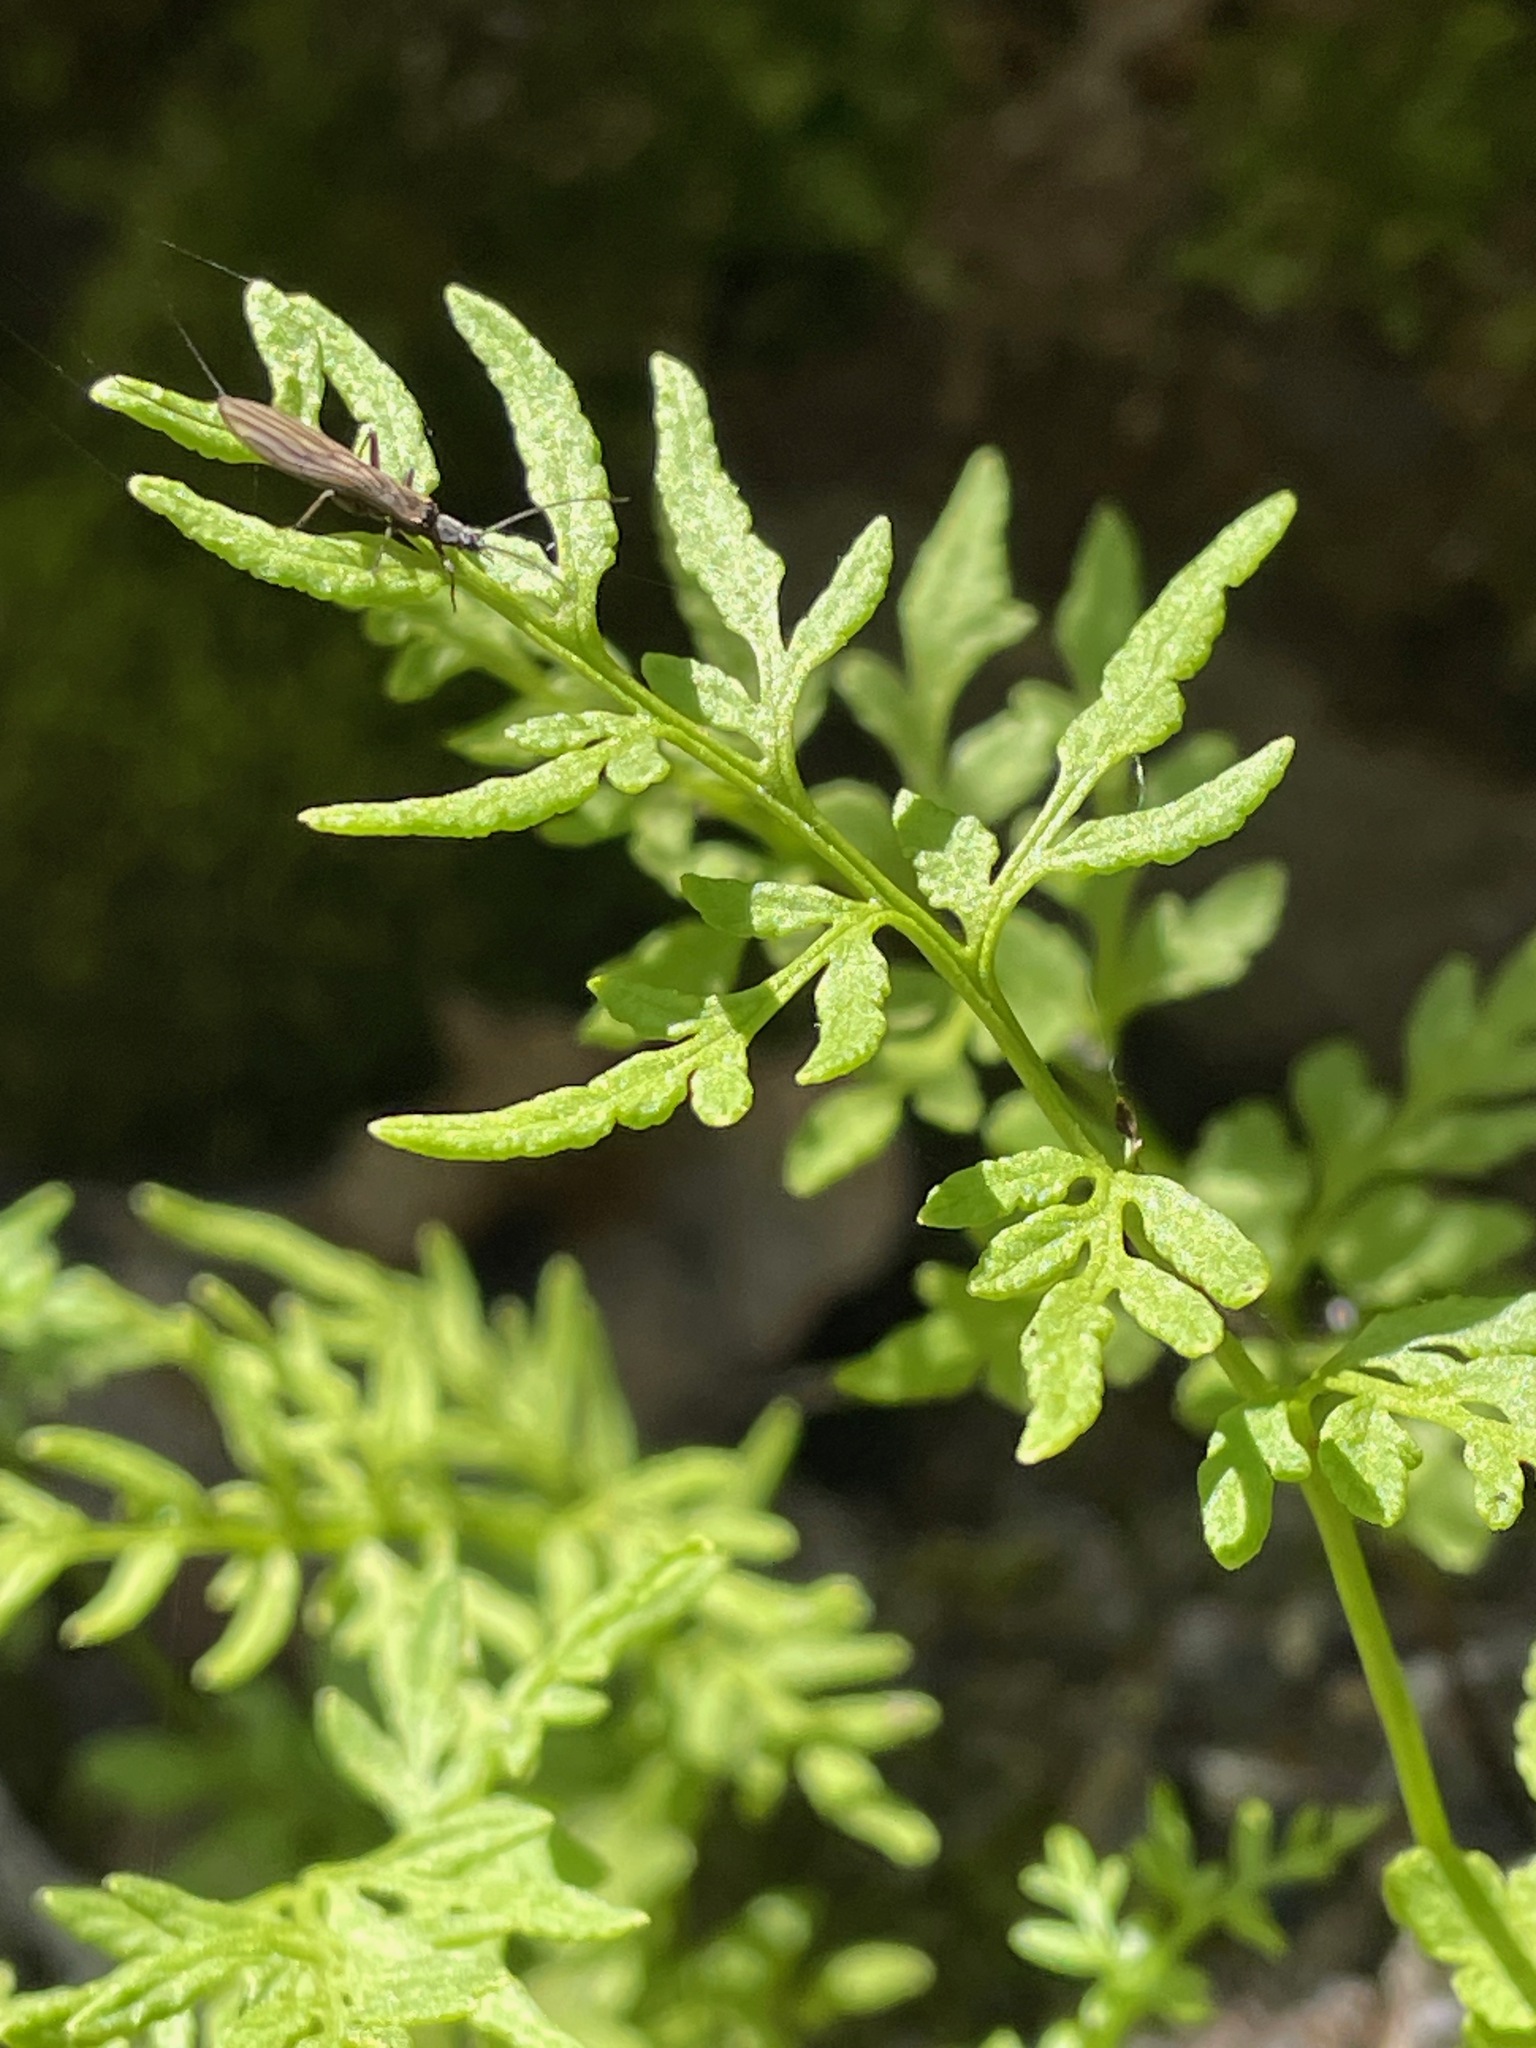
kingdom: Plantae
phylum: Tracheophyta
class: Polypodiopsida
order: Polypodiales
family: Pteridaceae
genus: Cryptogramma
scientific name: Cryptogramma stelleri
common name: Cliff-brake
